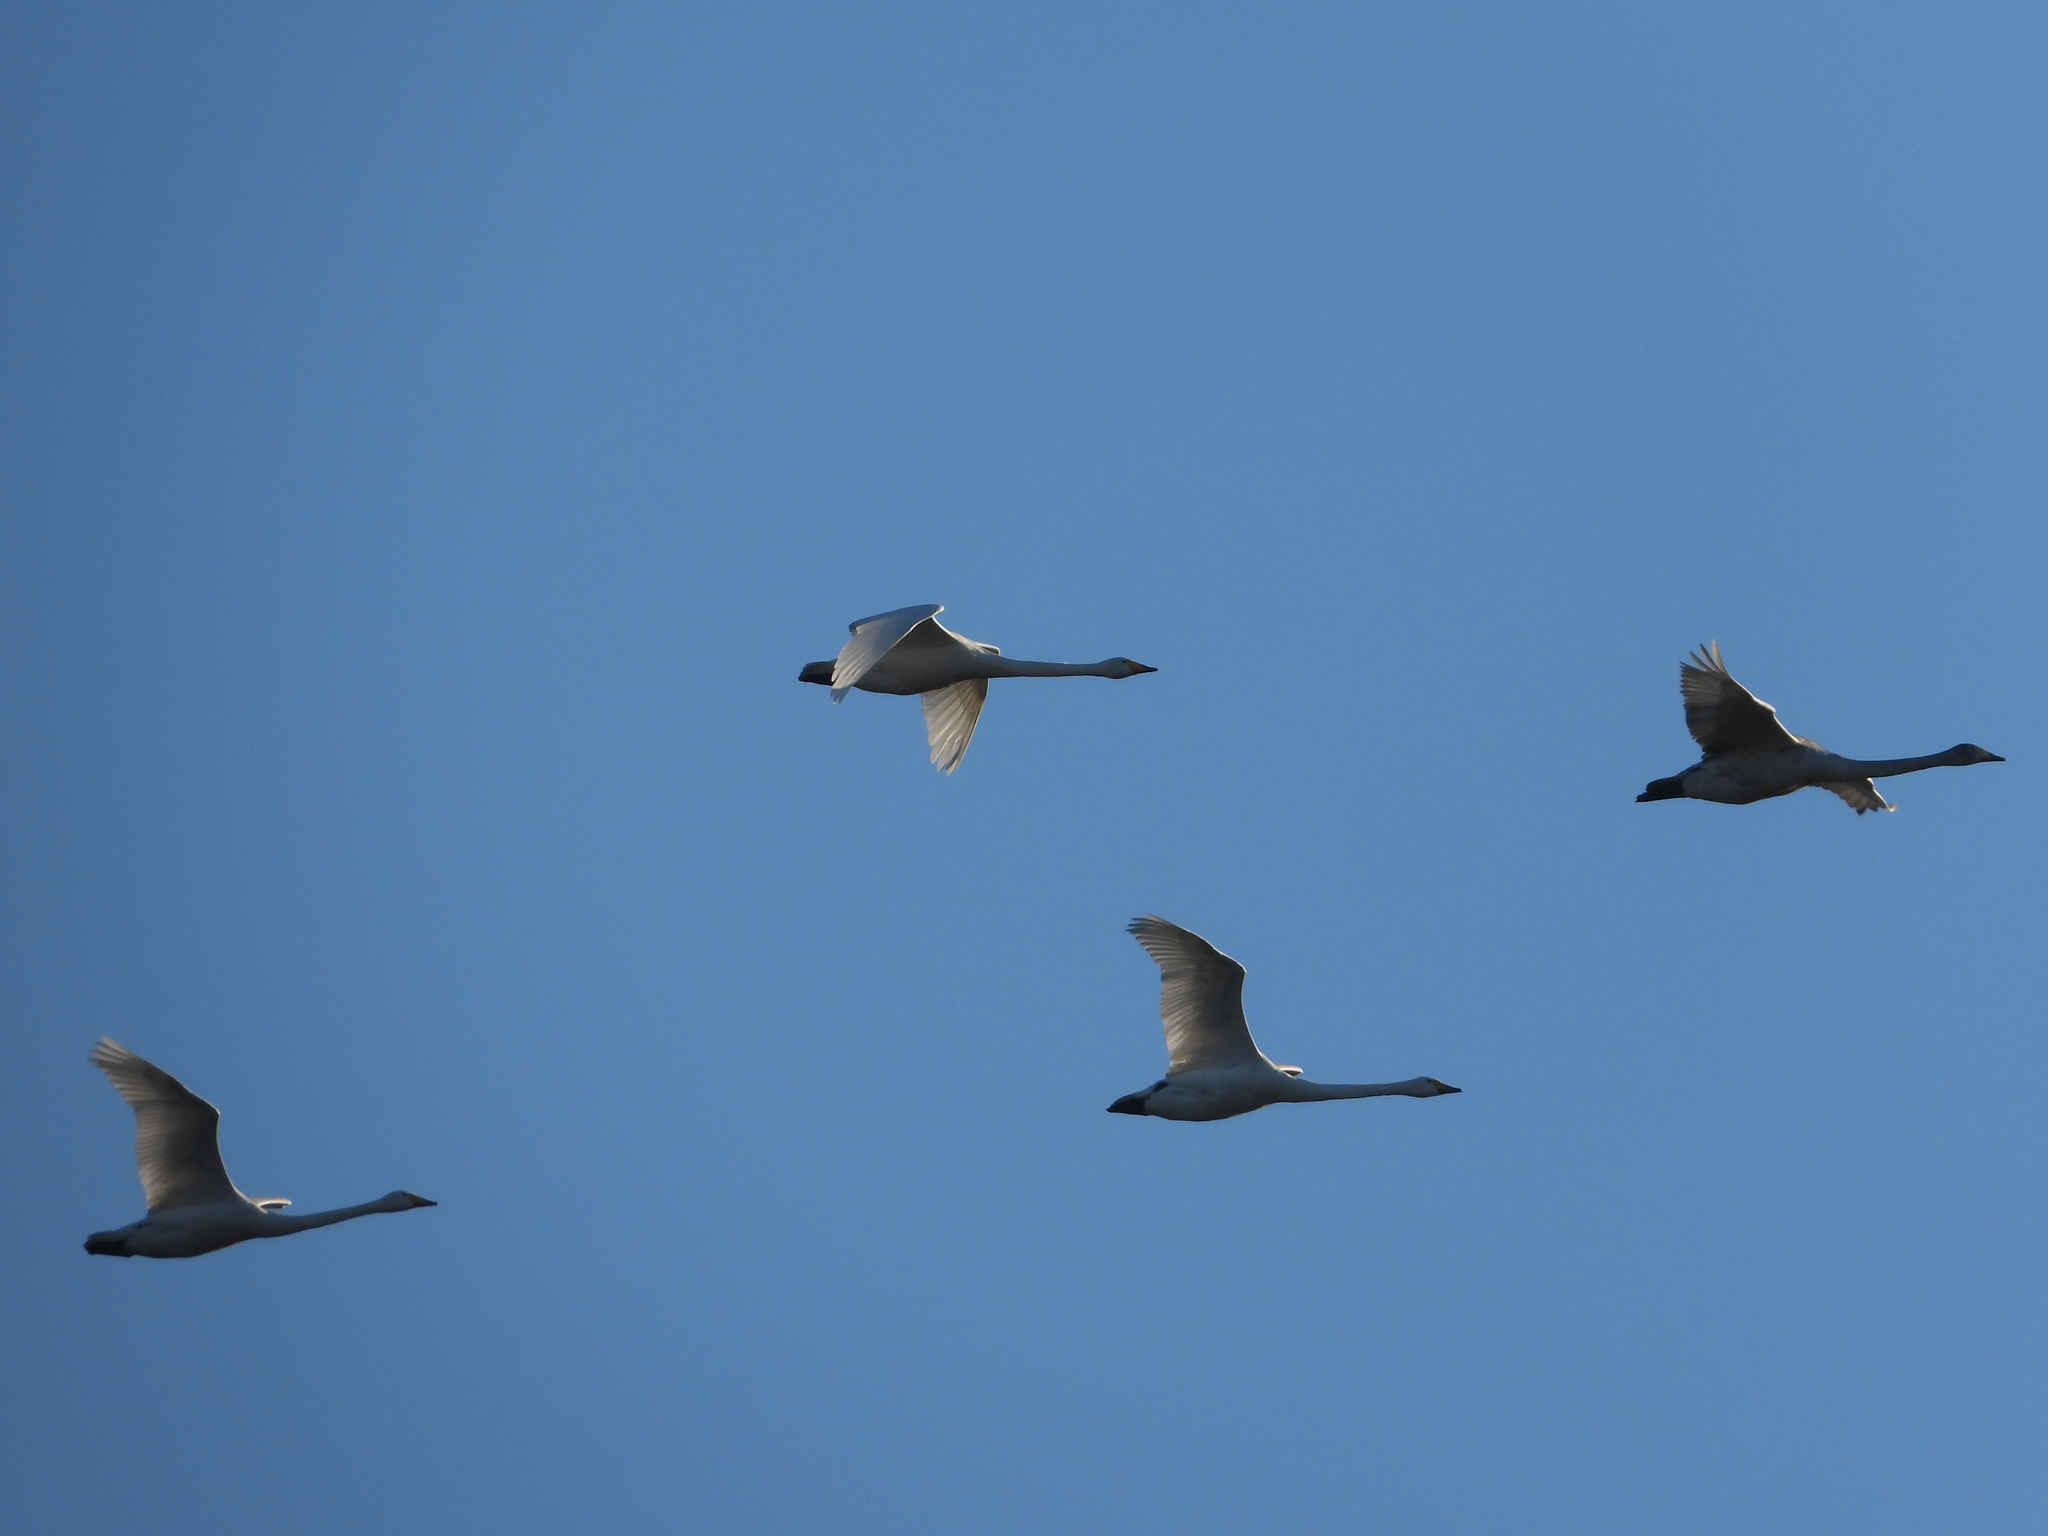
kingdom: Animalia
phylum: Chordata
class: Aves
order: Anseriformes
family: Anatidae
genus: Cygnus
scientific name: Cygnus cygnus
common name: Whooper swan
